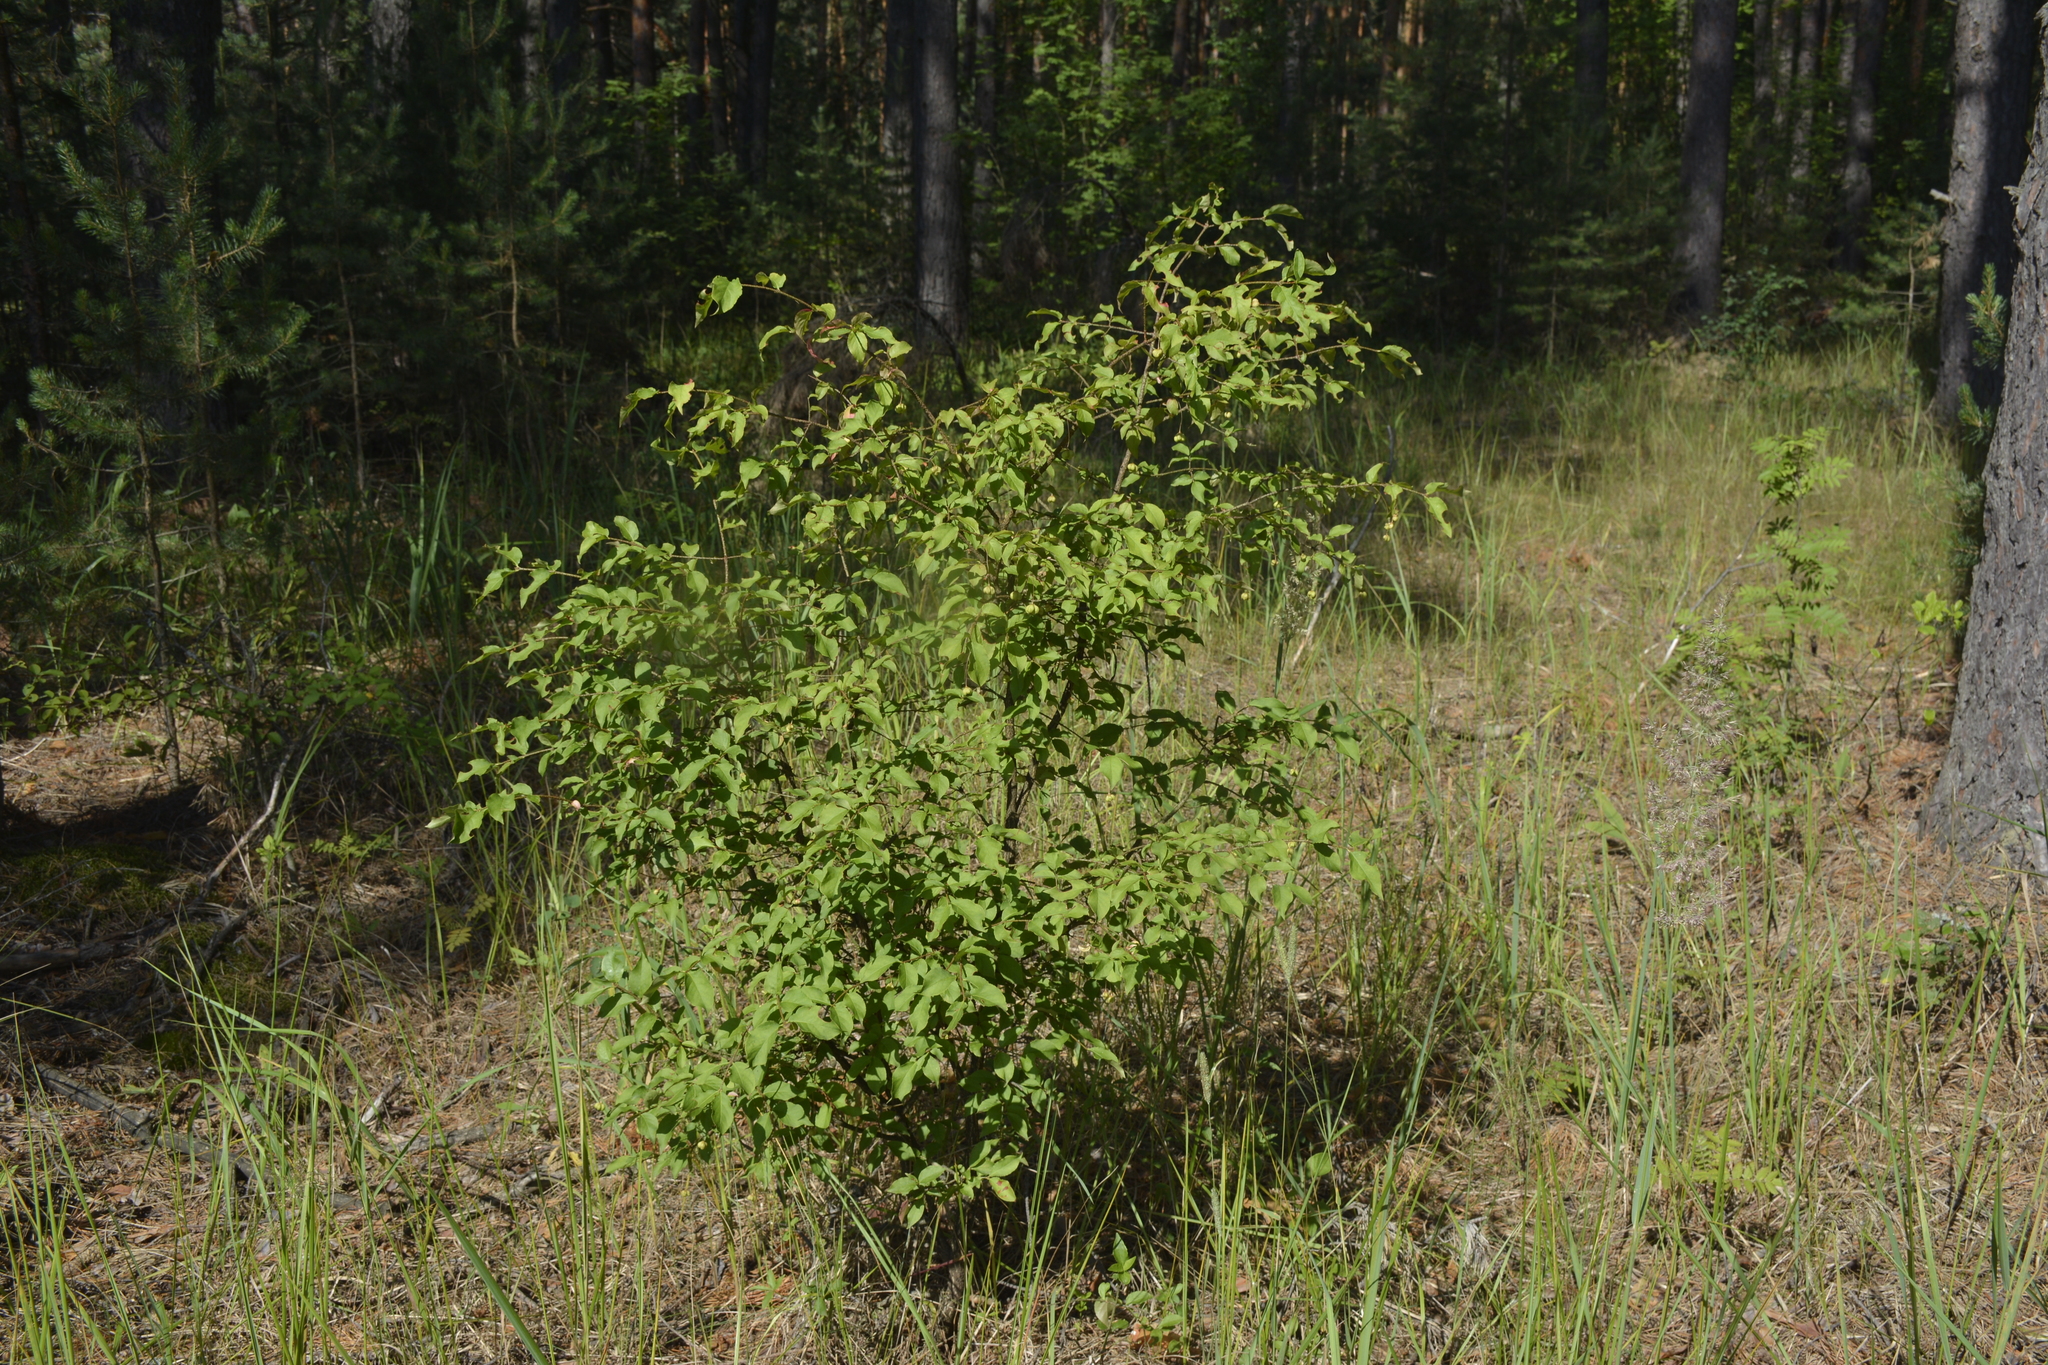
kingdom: Plantae
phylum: Tracheophyta
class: Magnoliopsida
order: Celastrales
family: Celastraceae
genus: Euonymus
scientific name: Euonymus verrucosus
